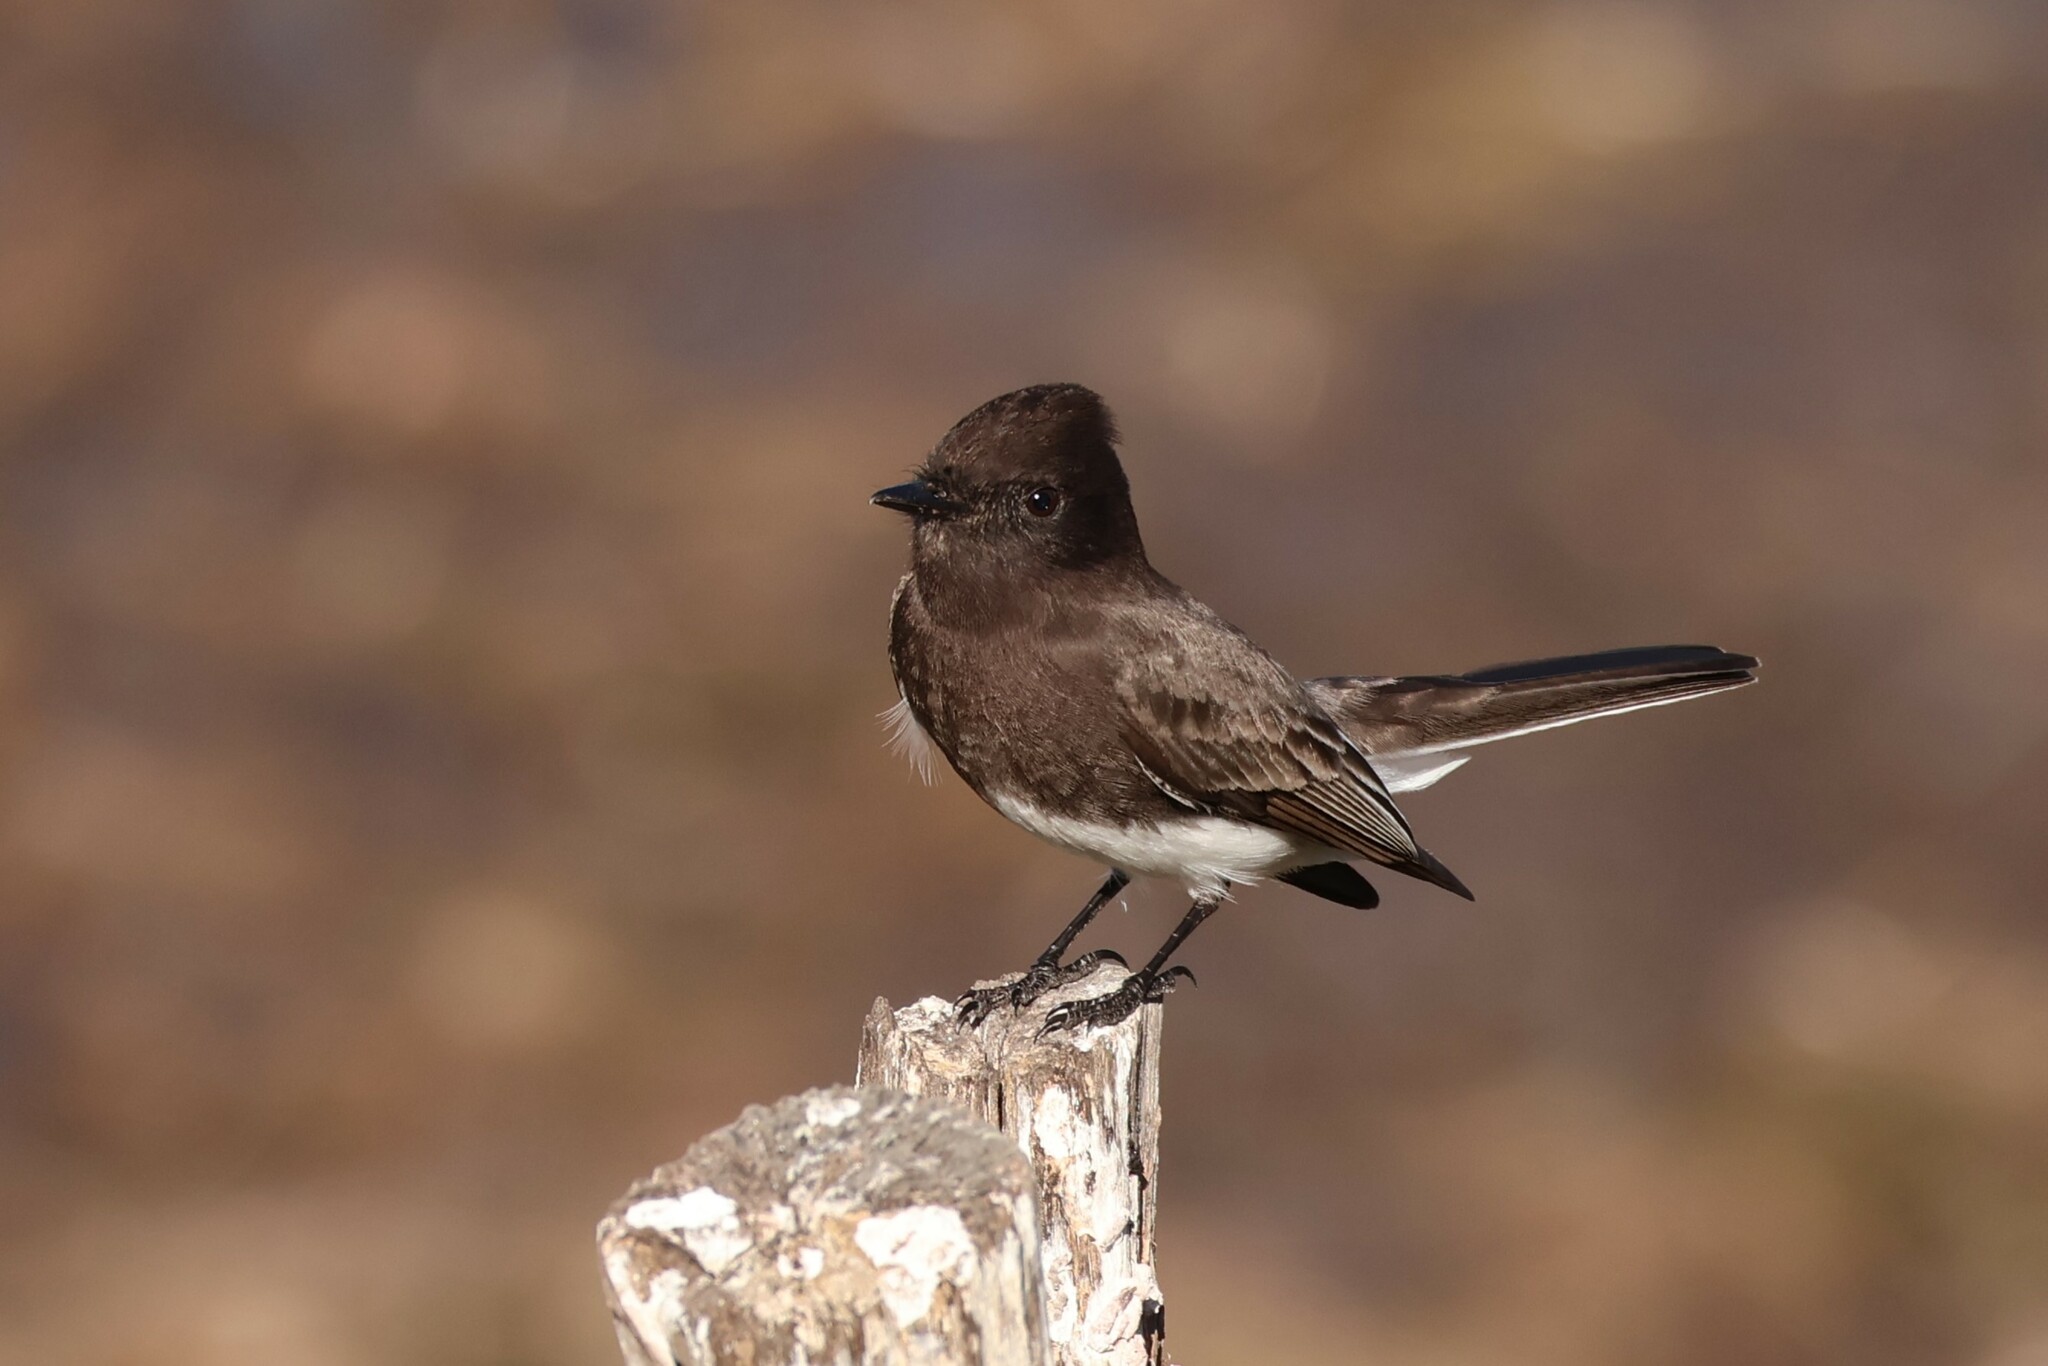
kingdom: Animalia
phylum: Chordata
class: Aves
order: Passeriformes
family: Tyrannidae
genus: Sayornis
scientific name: Sayornis nigricans
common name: Black phoebe
